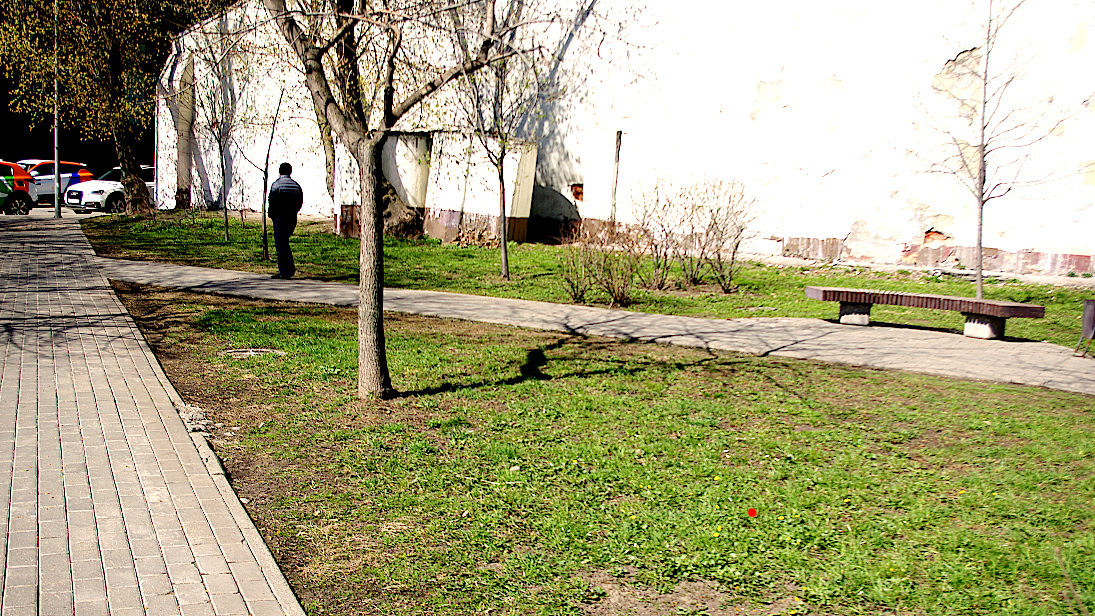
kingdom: Plantae
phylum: Tracheophyta
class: Magnoliopsida
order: Ranunculales
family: Ranunculaceae
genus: Ficaria
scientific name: Ficaria verna
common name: Lesser celandine
